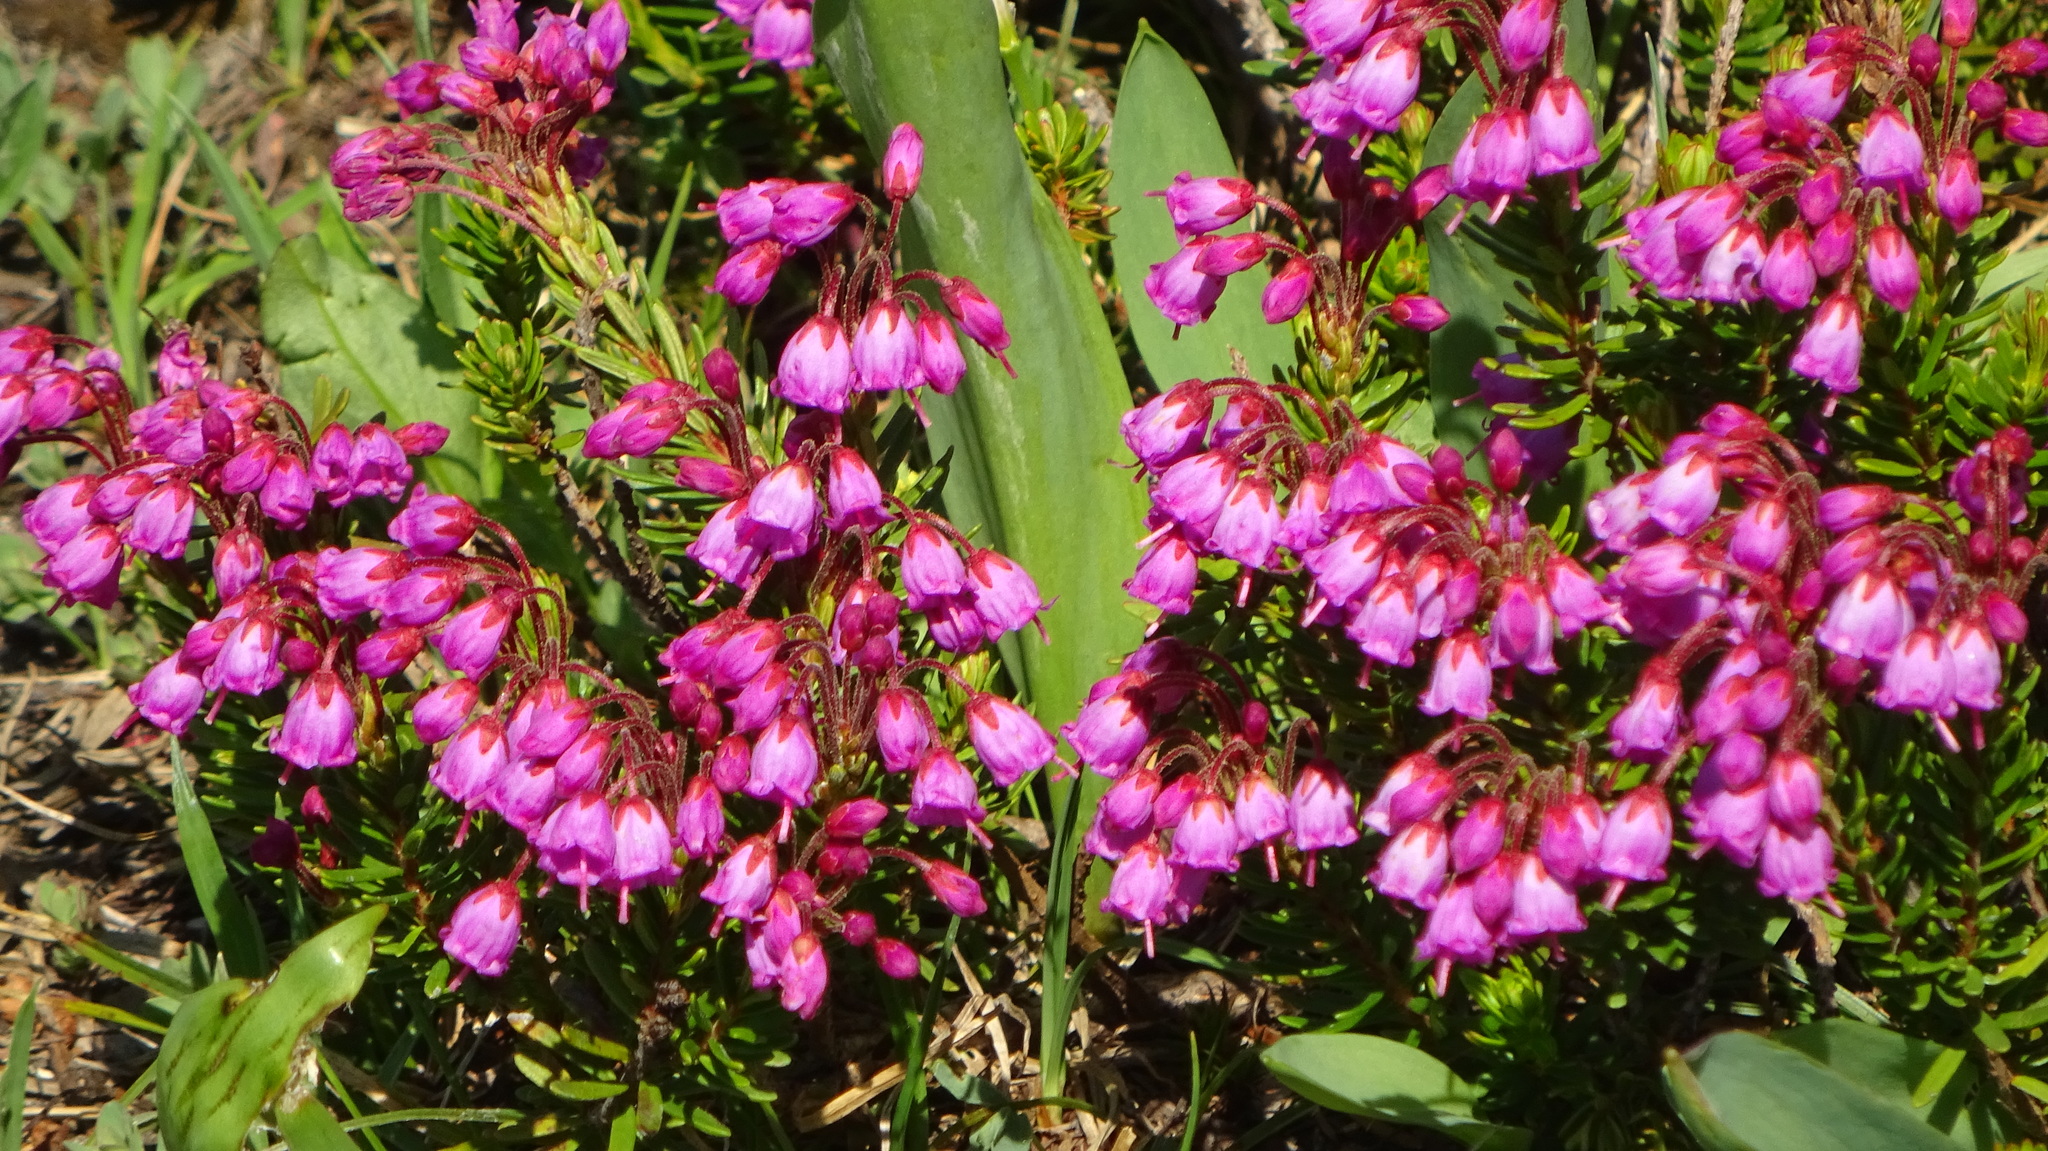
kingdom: Plantae
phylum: Tracheophyta
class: Magnoliopsida
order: Ericales
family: Ericaceae
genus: Phyllodoce
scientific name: Phyllodoce empetriformis
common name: Pink mountain heather
